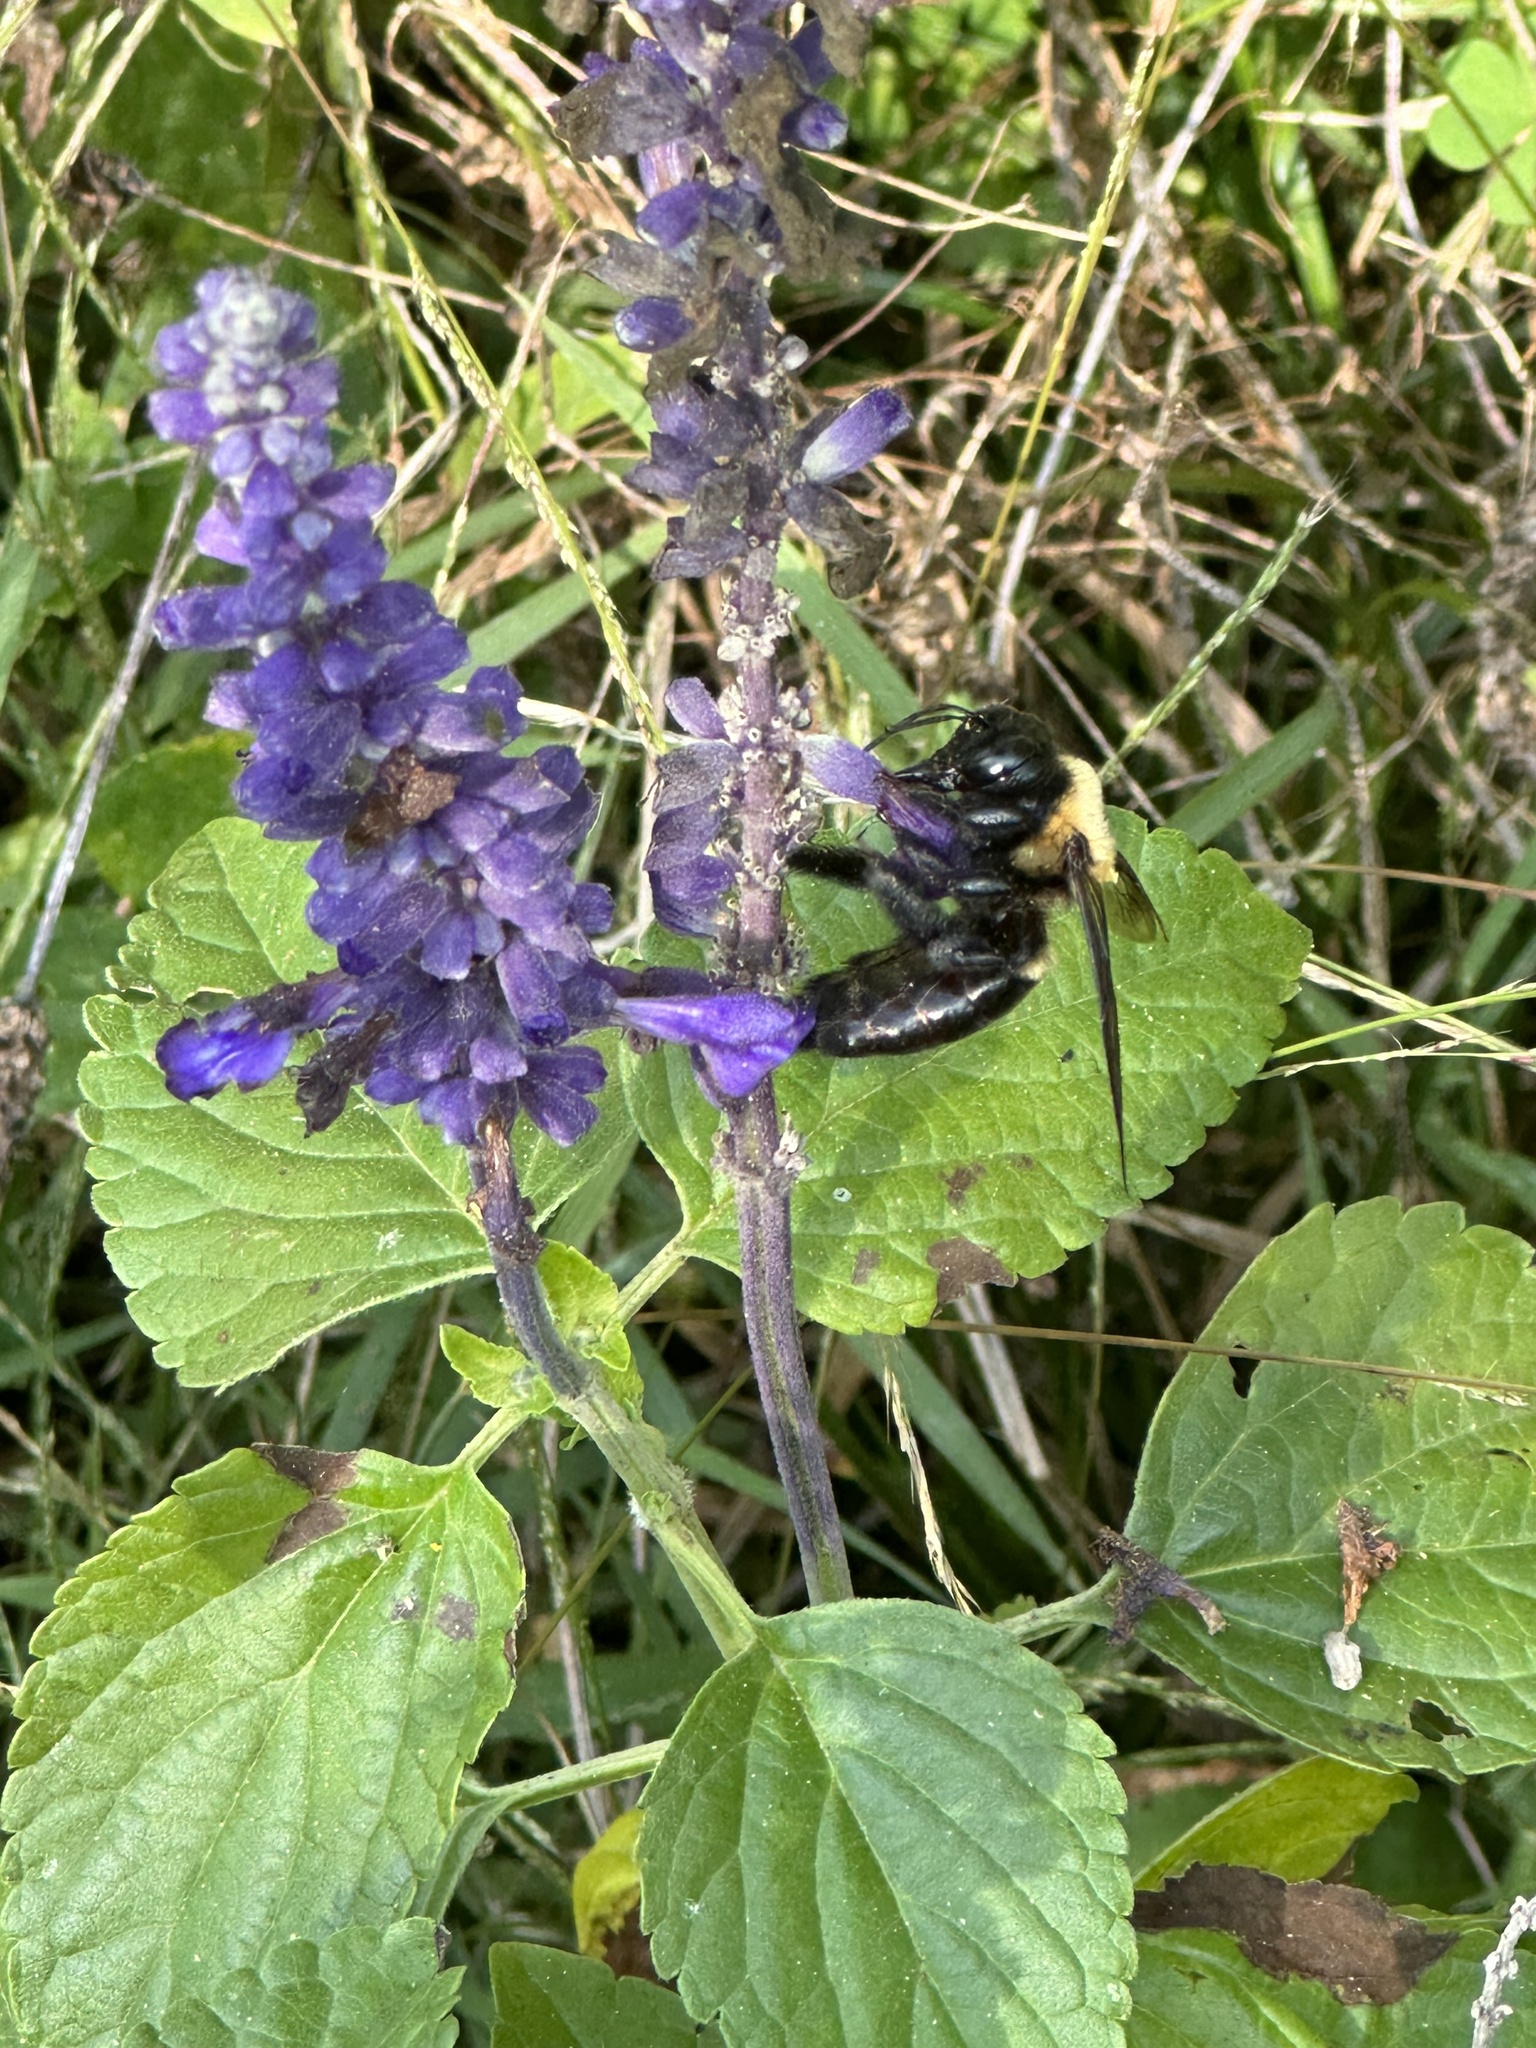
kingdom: Animalia
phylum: Arthropoda
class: Insecta
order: Hymenoptera
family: Apidae
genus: Xylocopa
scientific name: Xylocopa virginica
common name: Carpenter bee
